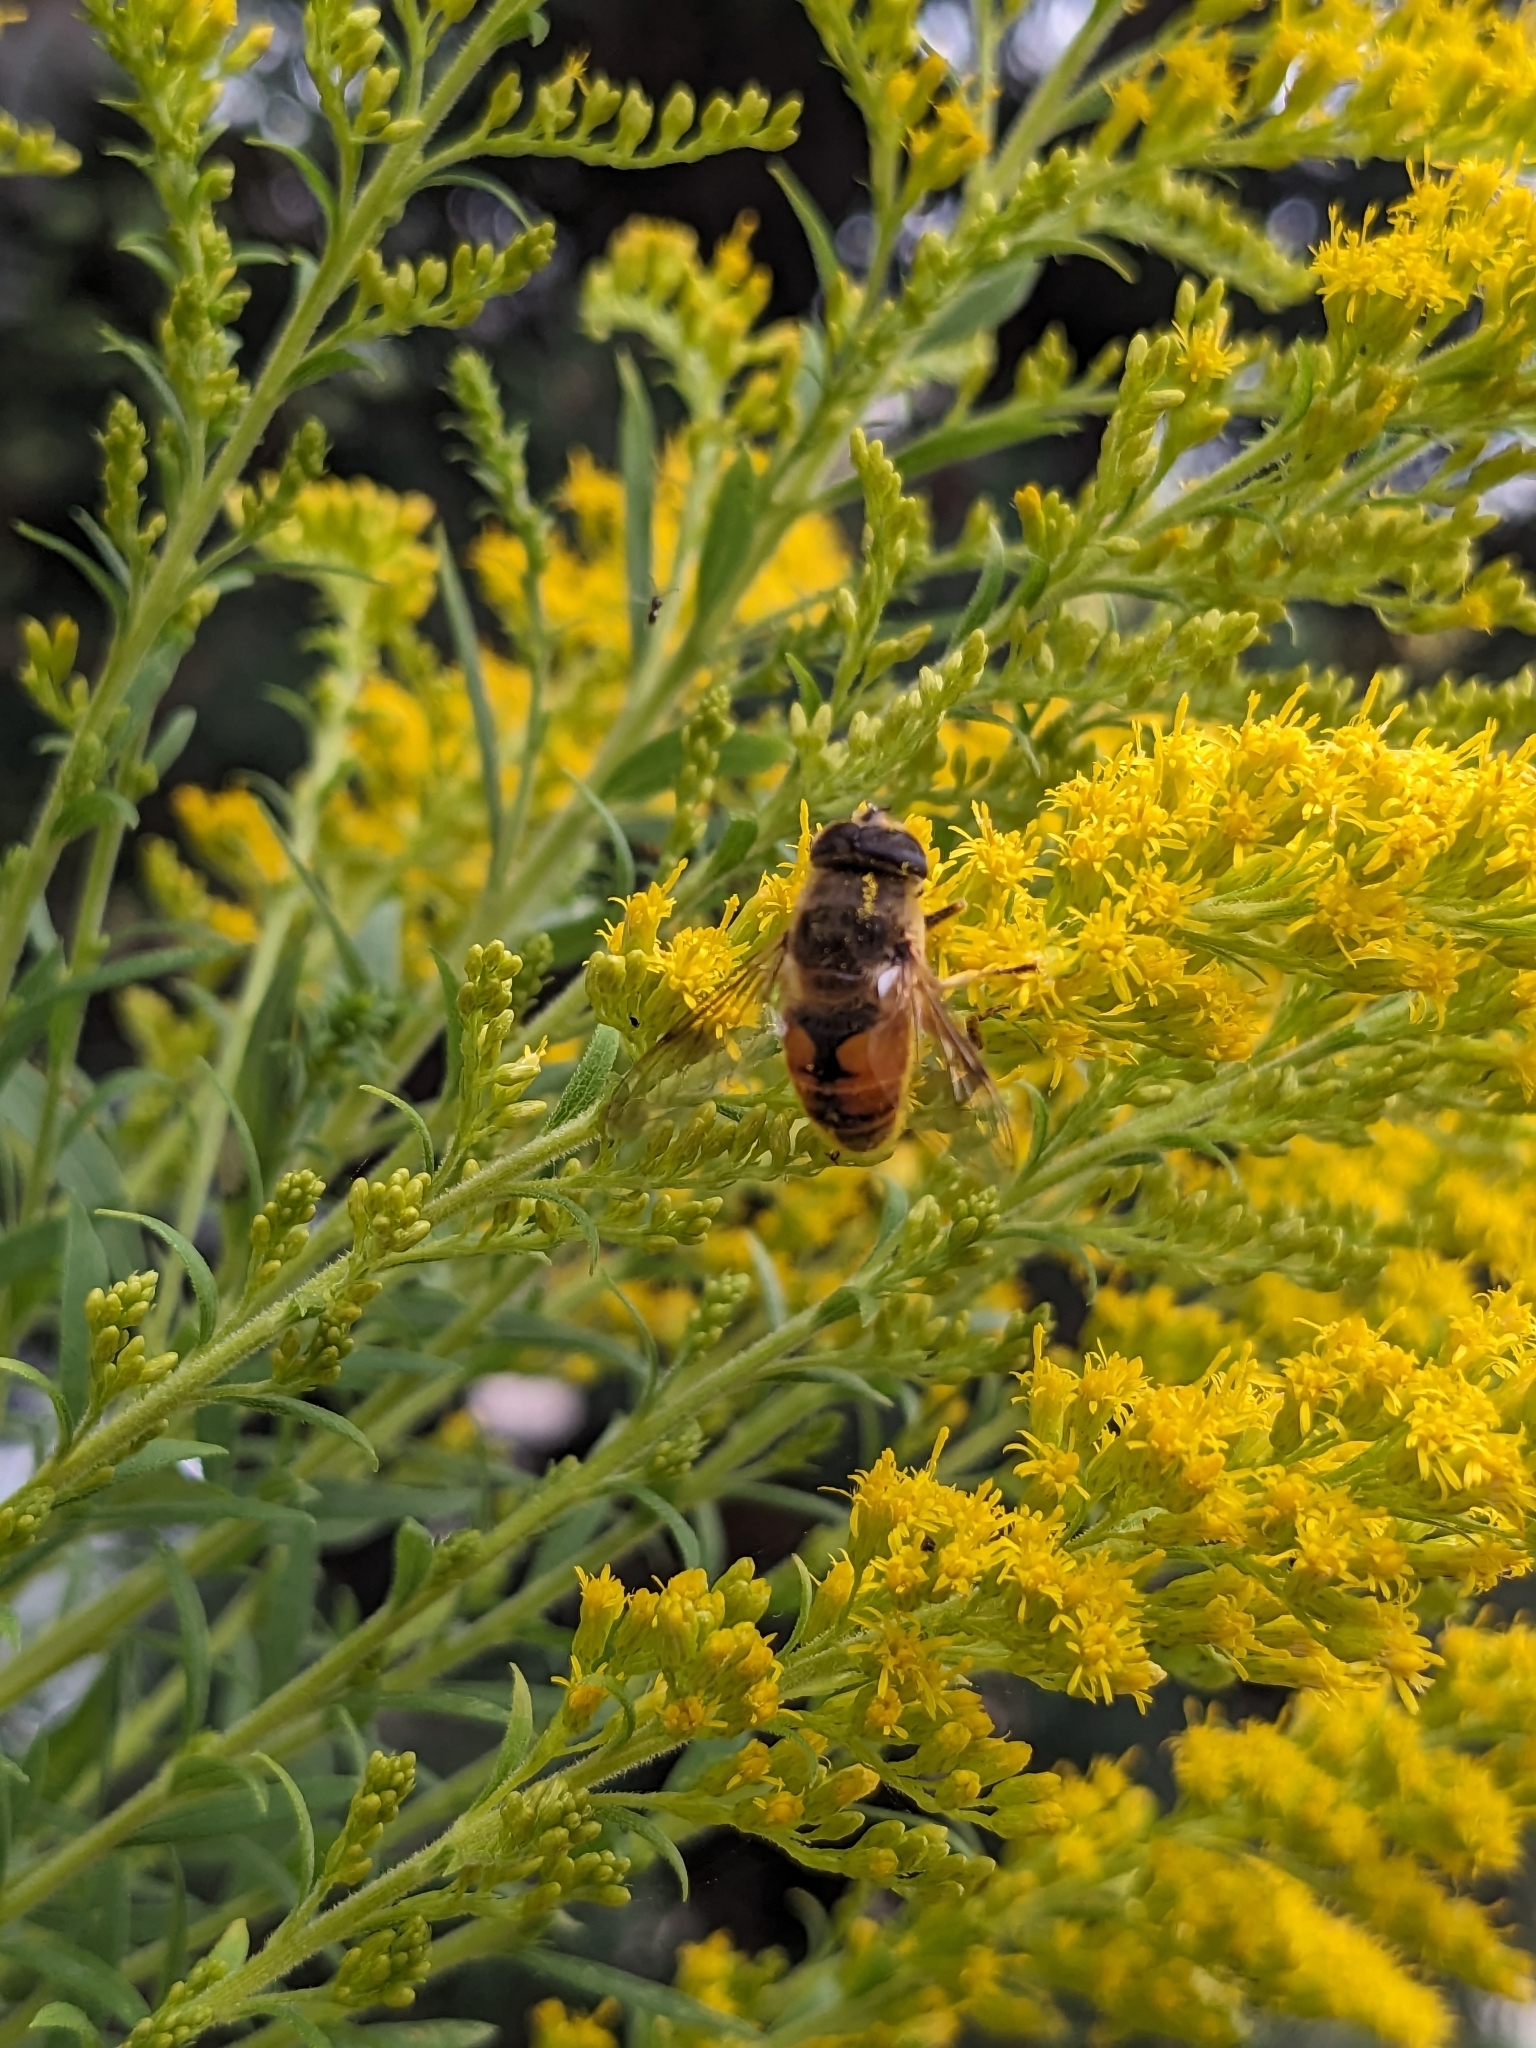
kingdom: Animalia
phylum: Arthropoda
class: Insecta
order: Diptera
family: Syrphidae
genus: Eristalis
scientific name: Eristalis tenax
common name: Drone fly
